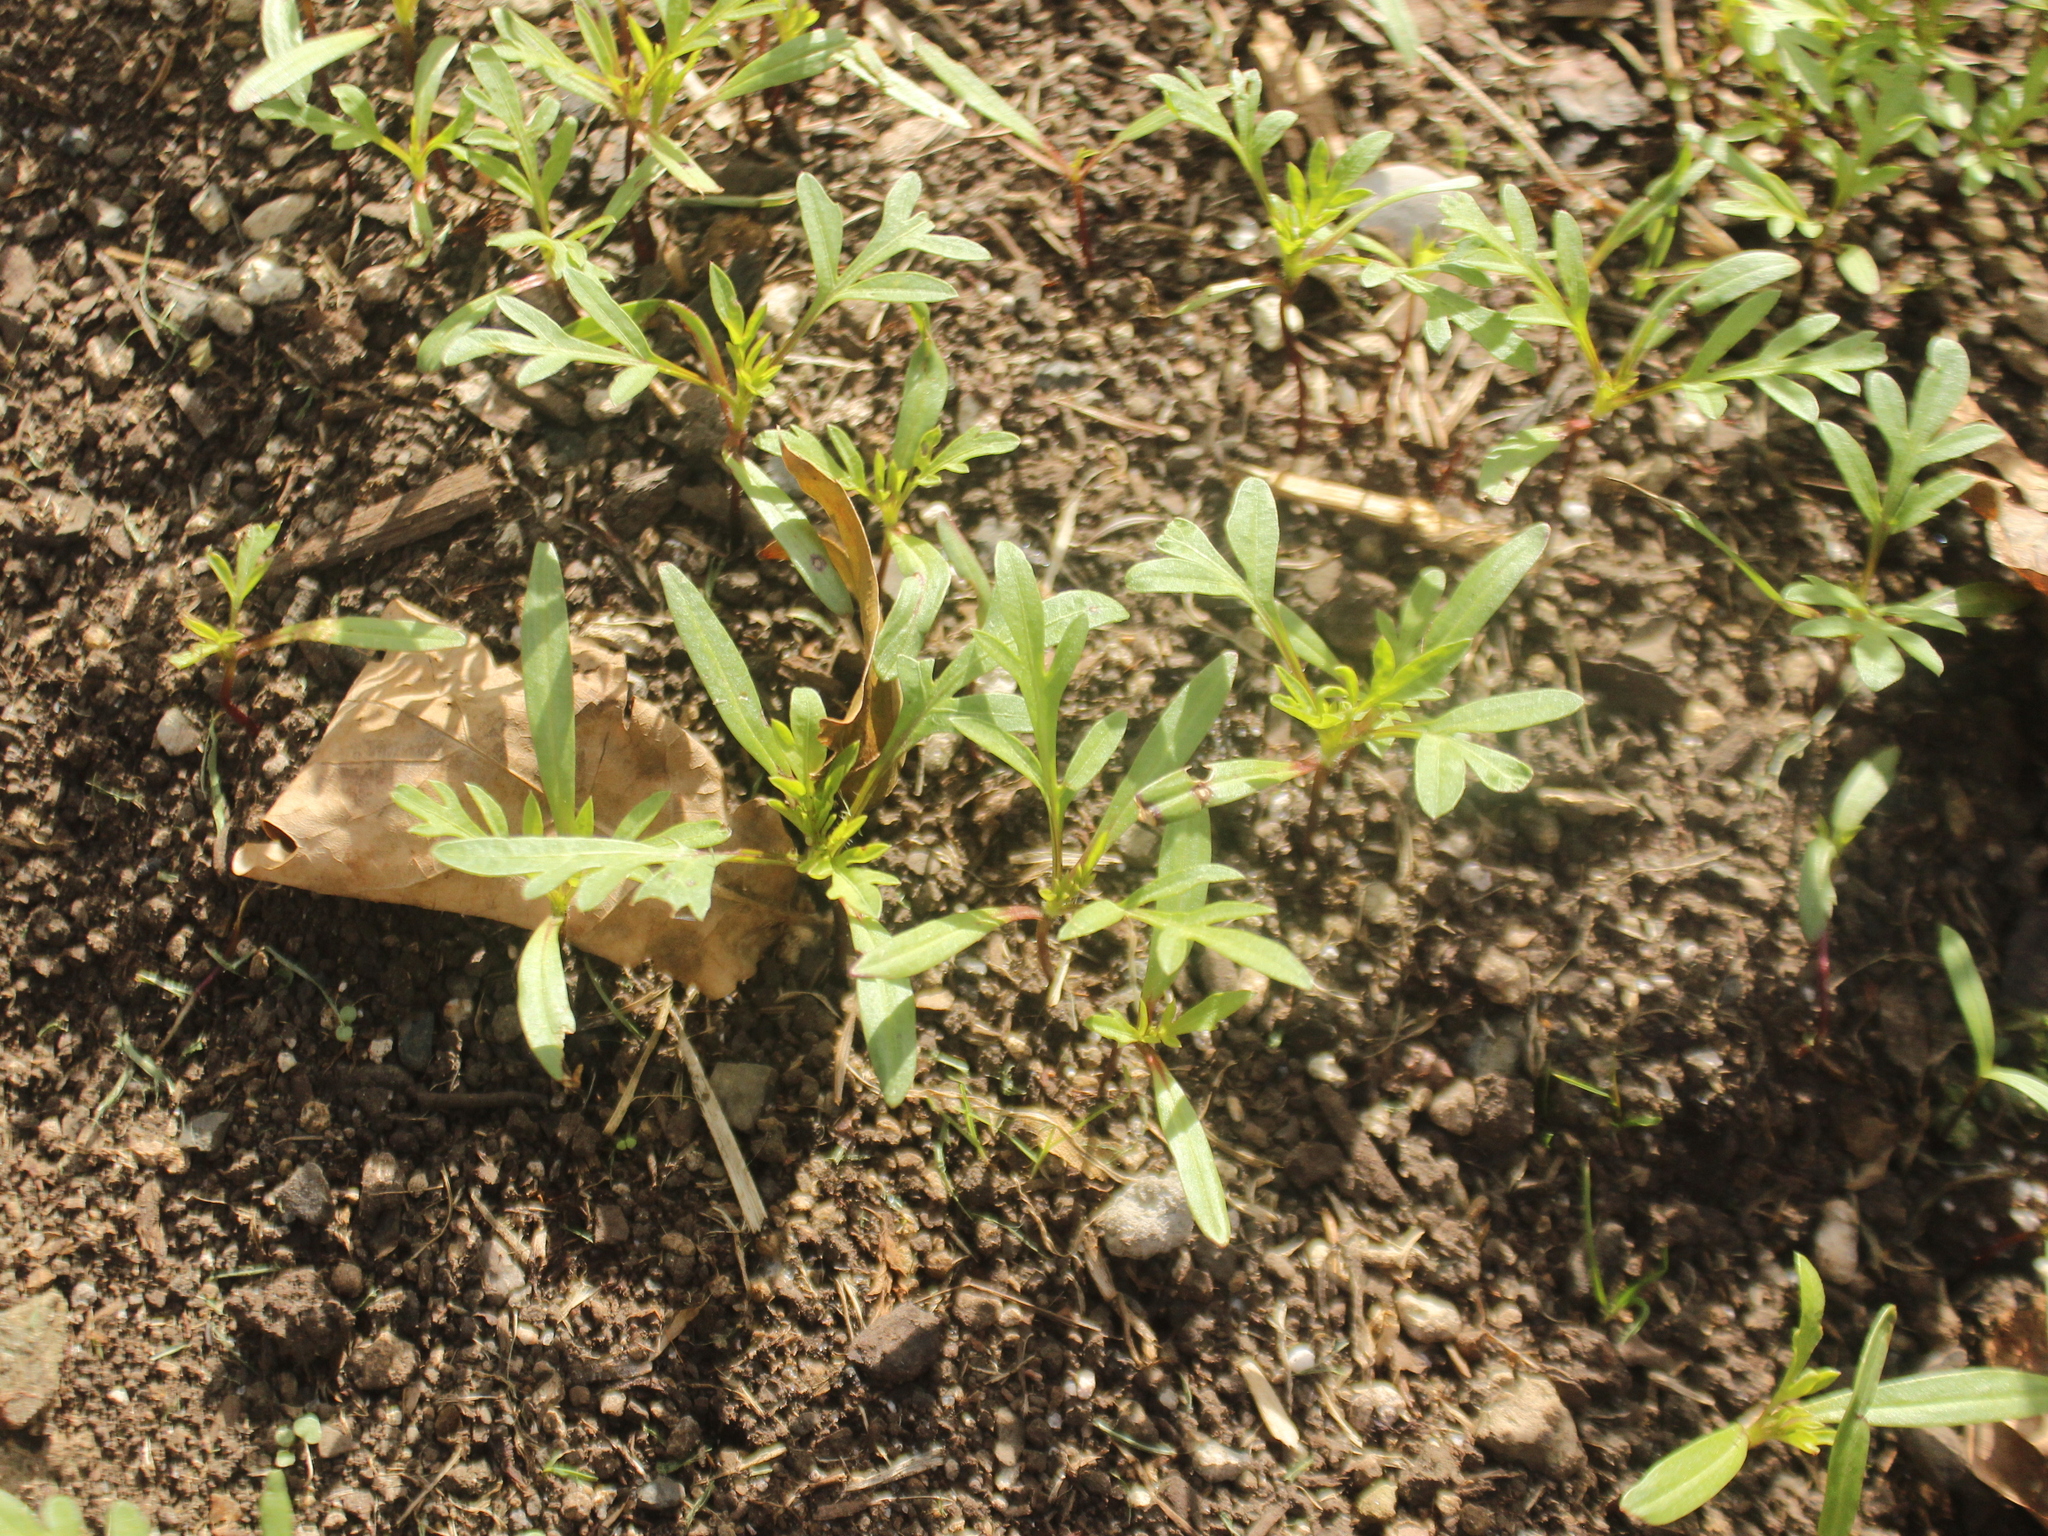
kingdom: Plantae
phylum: Tracheophyta
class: Magnoliopsida
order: Asterales
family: Asteraceae
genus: Cosmos
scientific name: Cosmos sulphureus
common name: Sulphur cosmos
